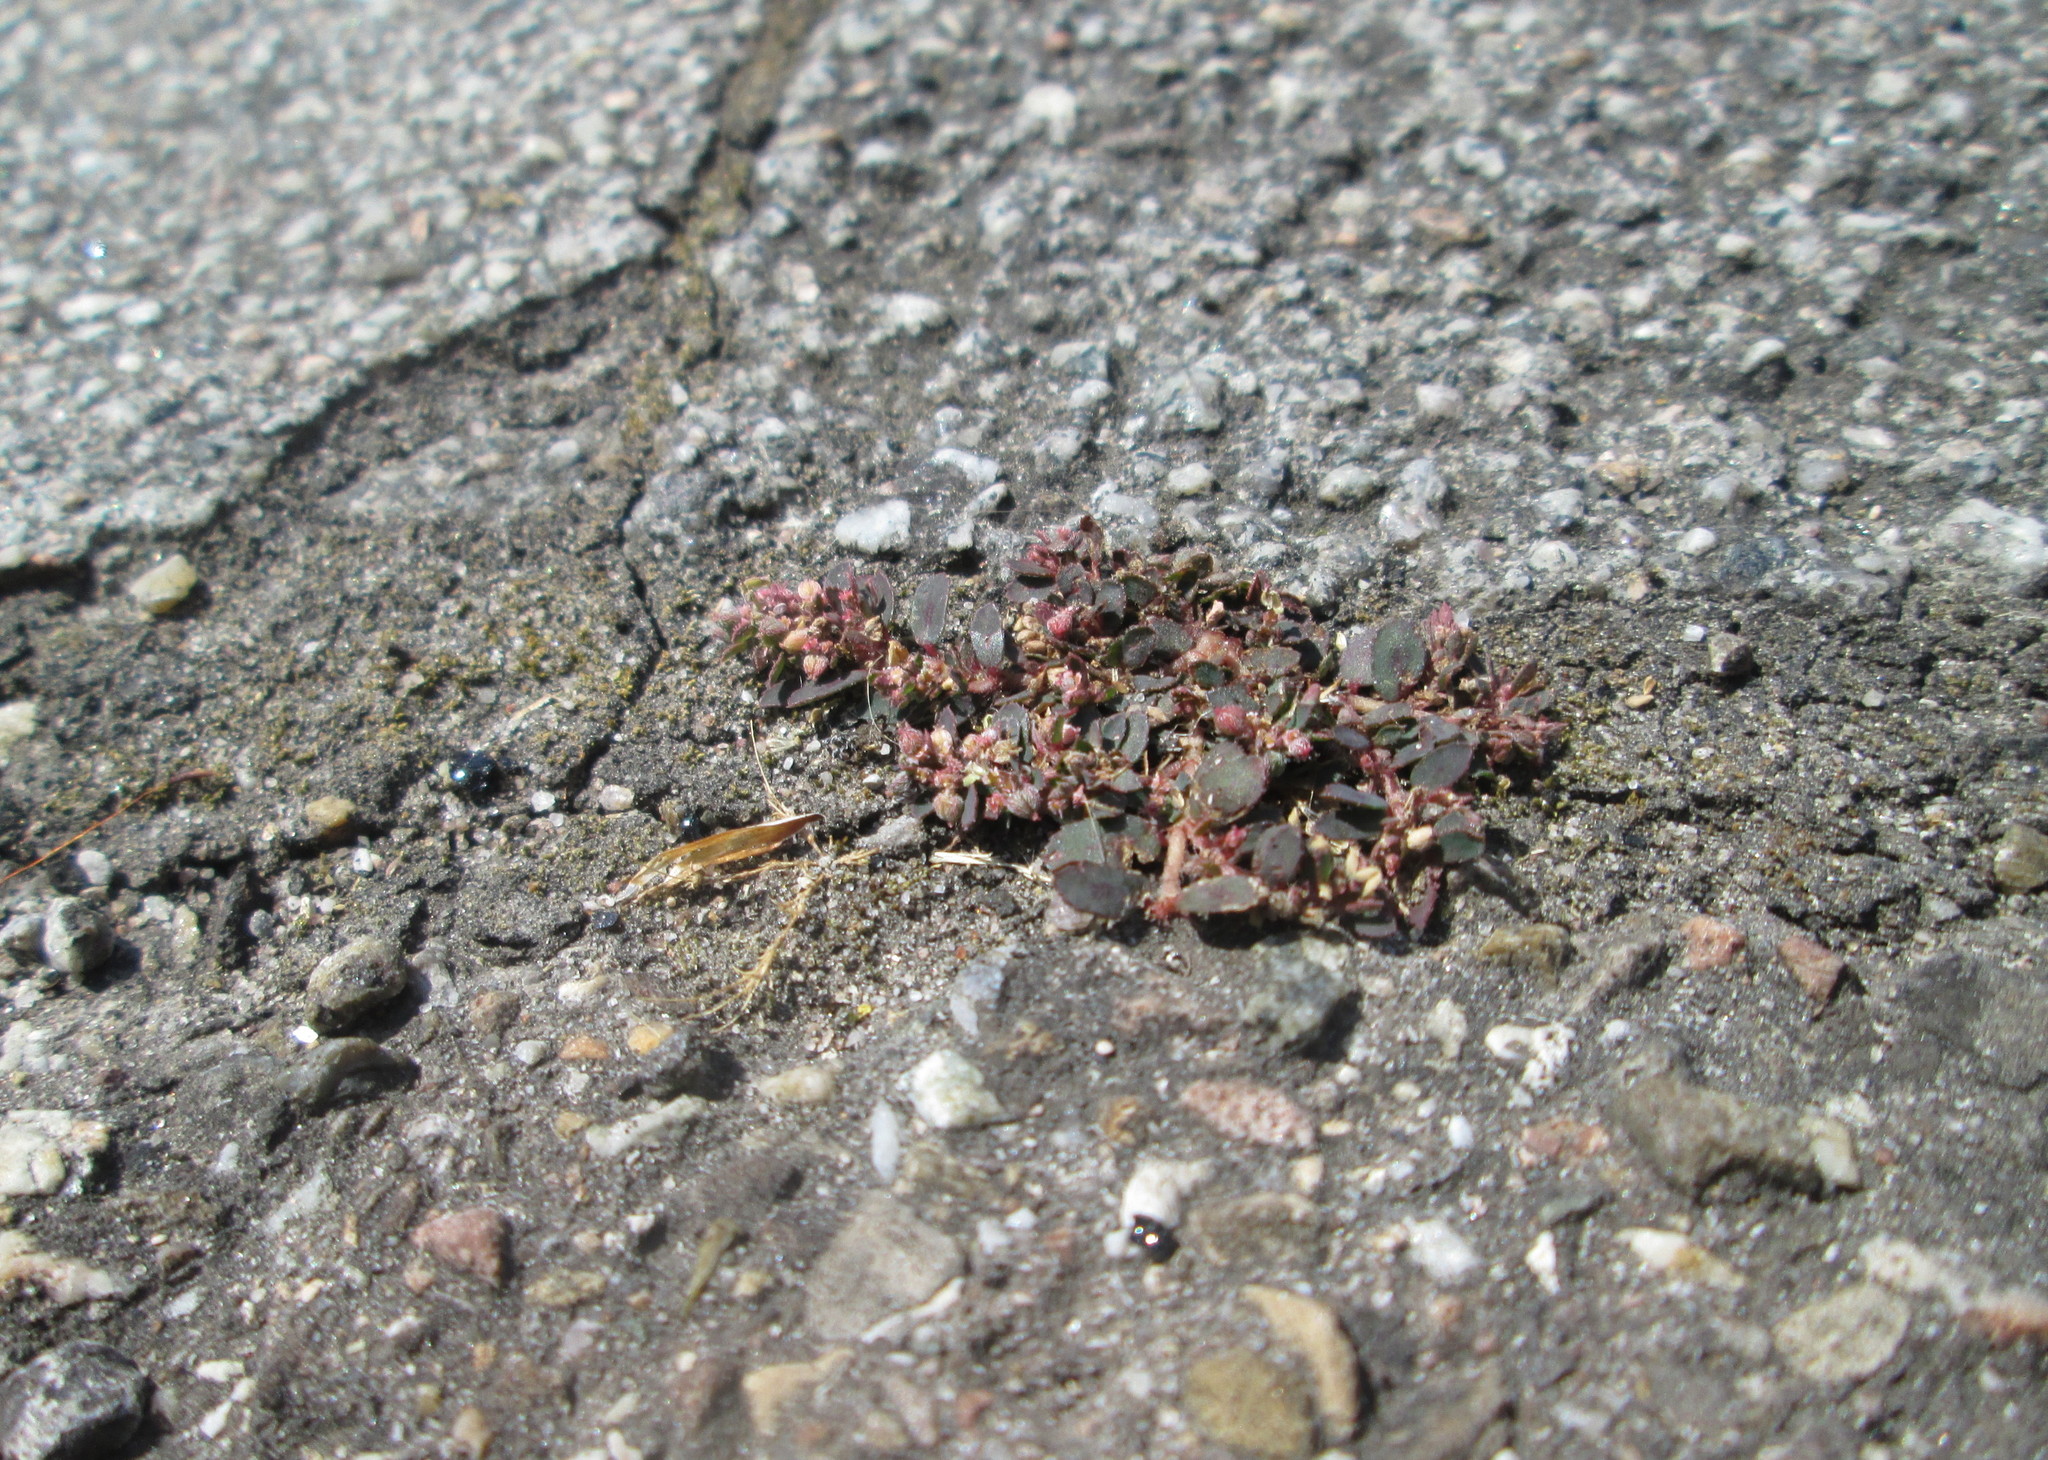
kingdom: Plantae
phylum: Tracheophyta
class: Magnoliopsida
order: Malpighiales
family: Euphorbiaceae
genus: Euphorbia
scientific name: Euphorbia maculata
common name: Spotted spurge
